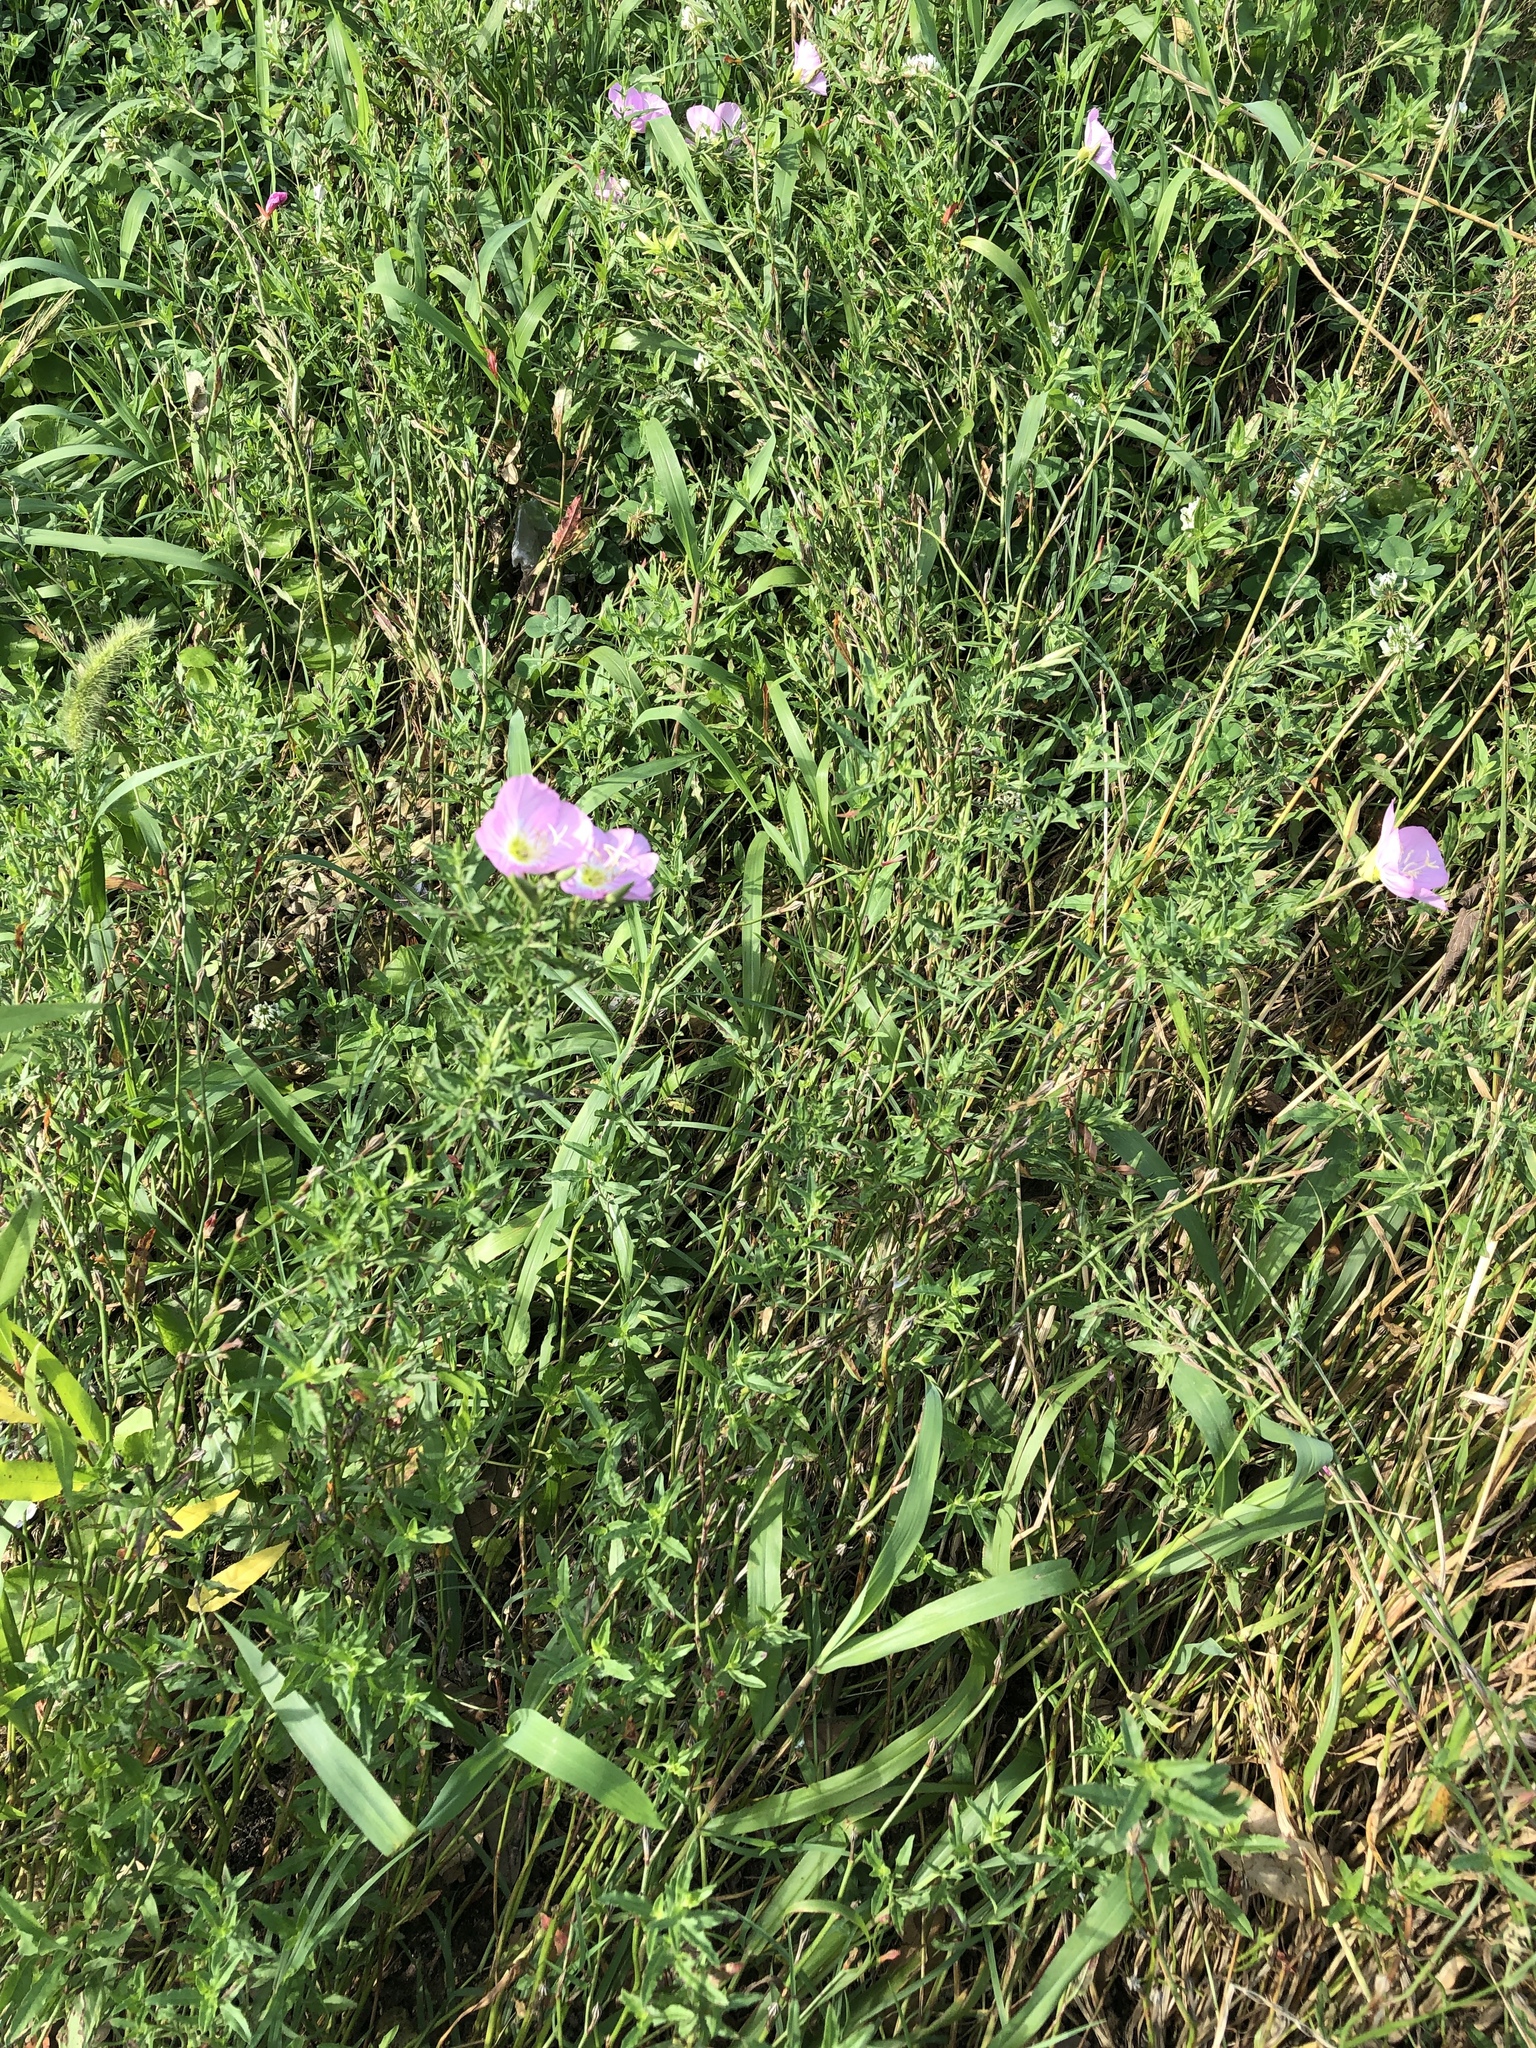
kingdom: Plantae
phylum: Tracheophyta
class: Magnoliopsida
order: Myrtales
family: Onagraceae
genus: Oenothera
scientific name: Oenothera speciosa
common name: White evening-primrose
